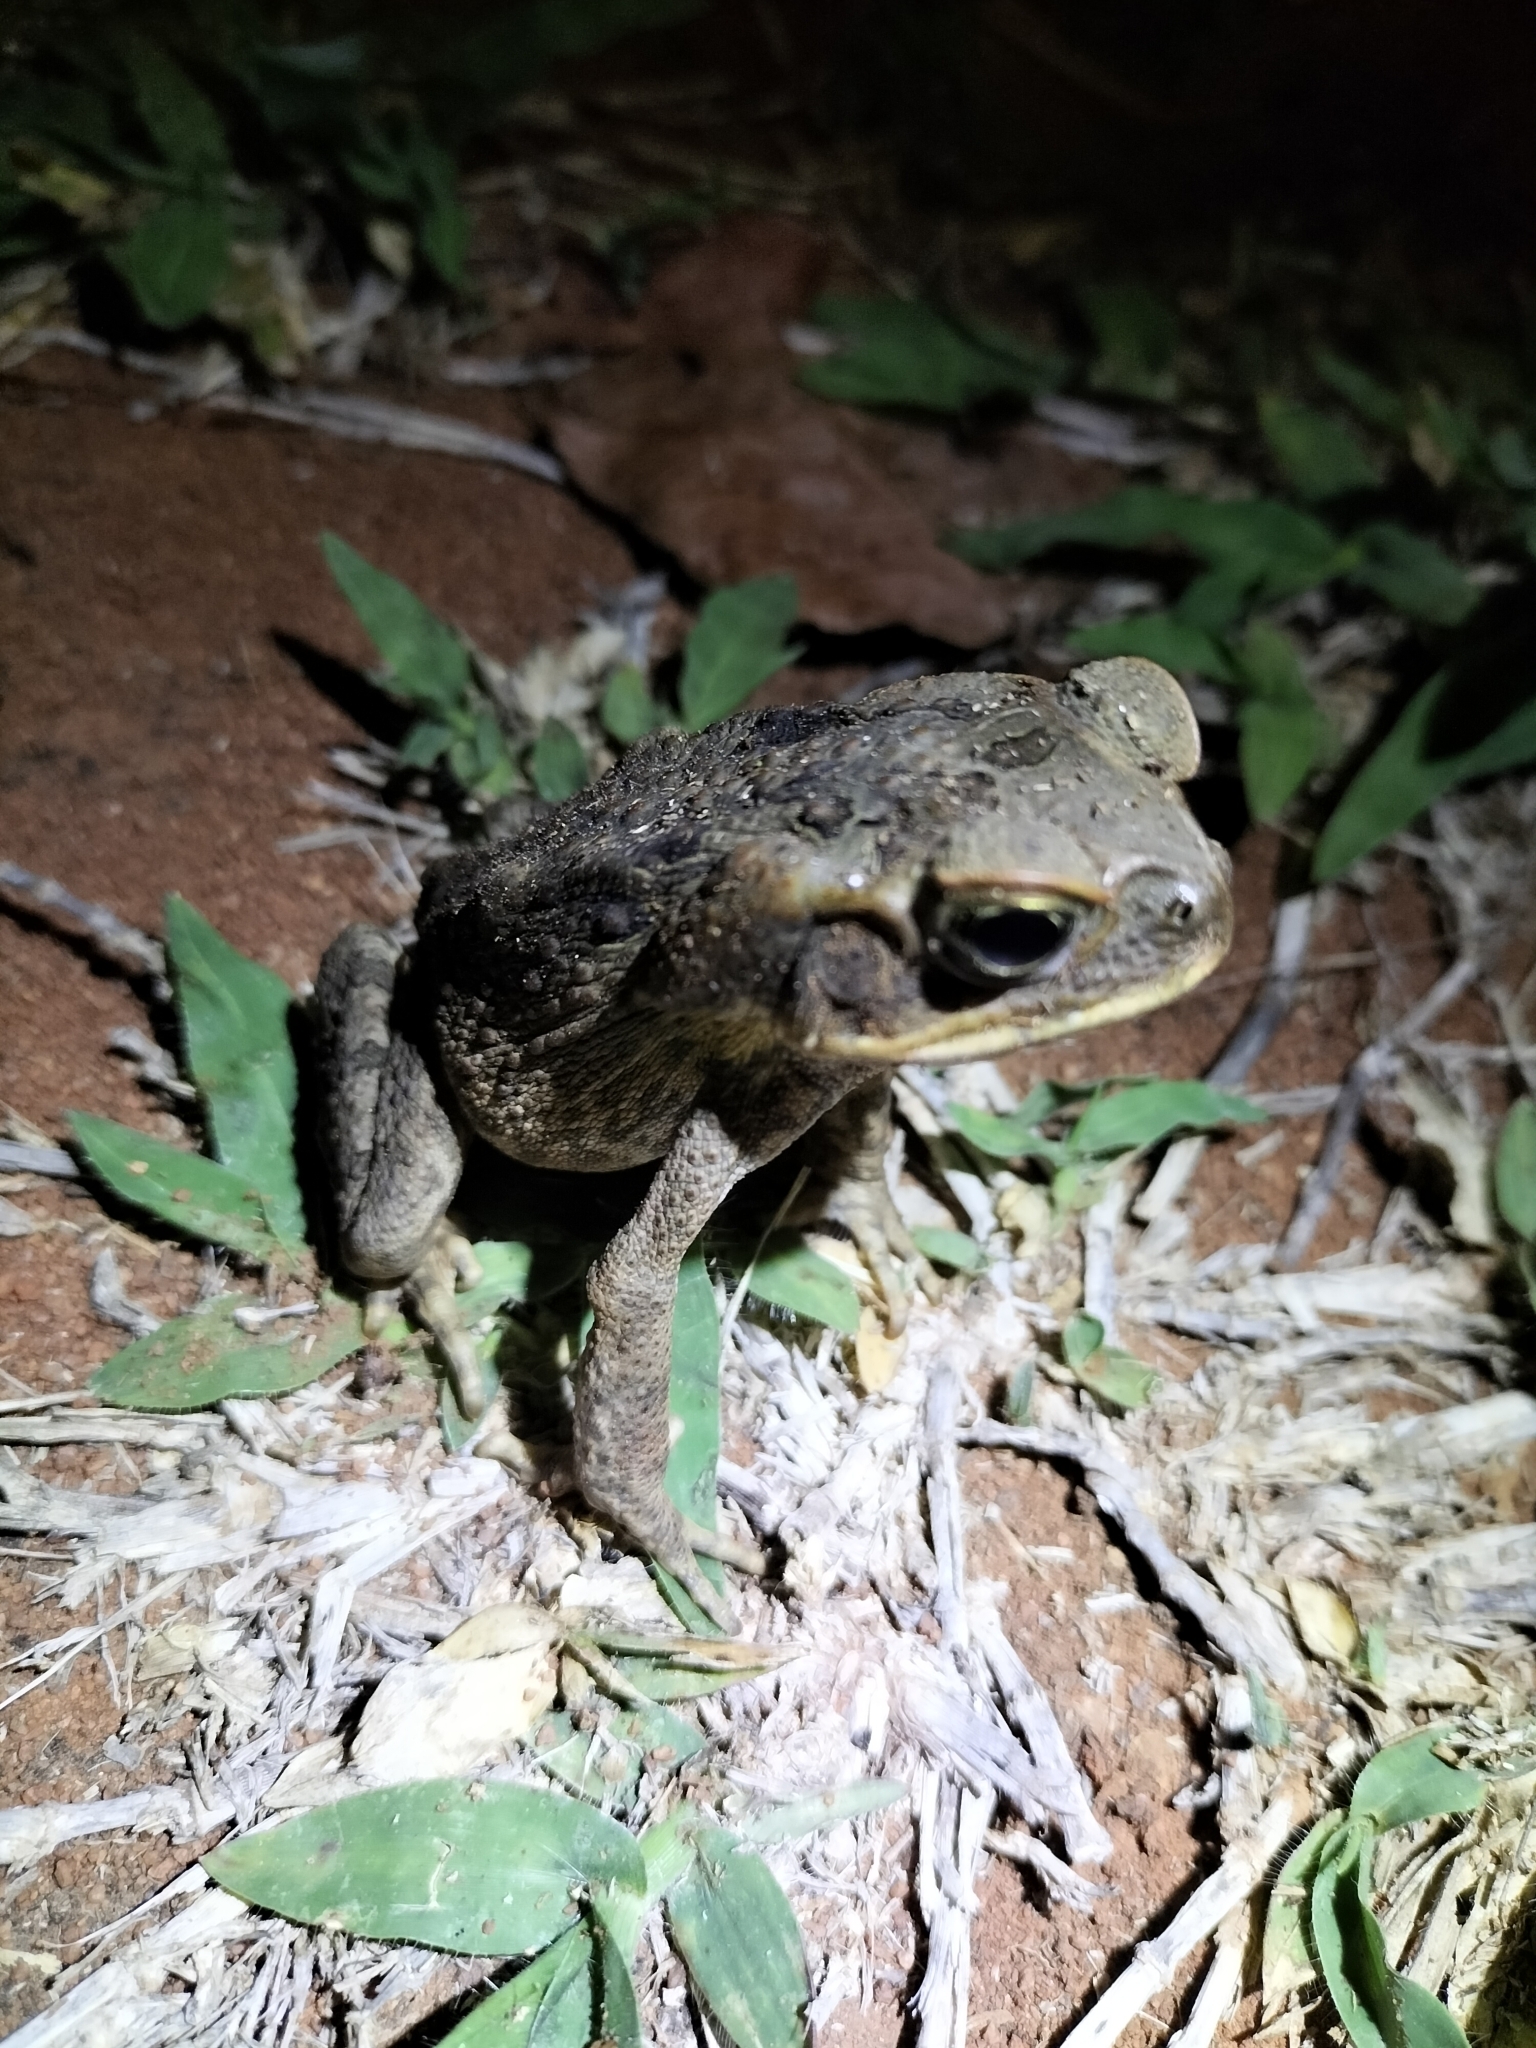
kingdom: Animalia
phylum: Chordata
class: Amphibia
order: Anura
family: Bufonidae
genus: Rhinella
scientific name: Rhinella marina
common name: Cane toad
